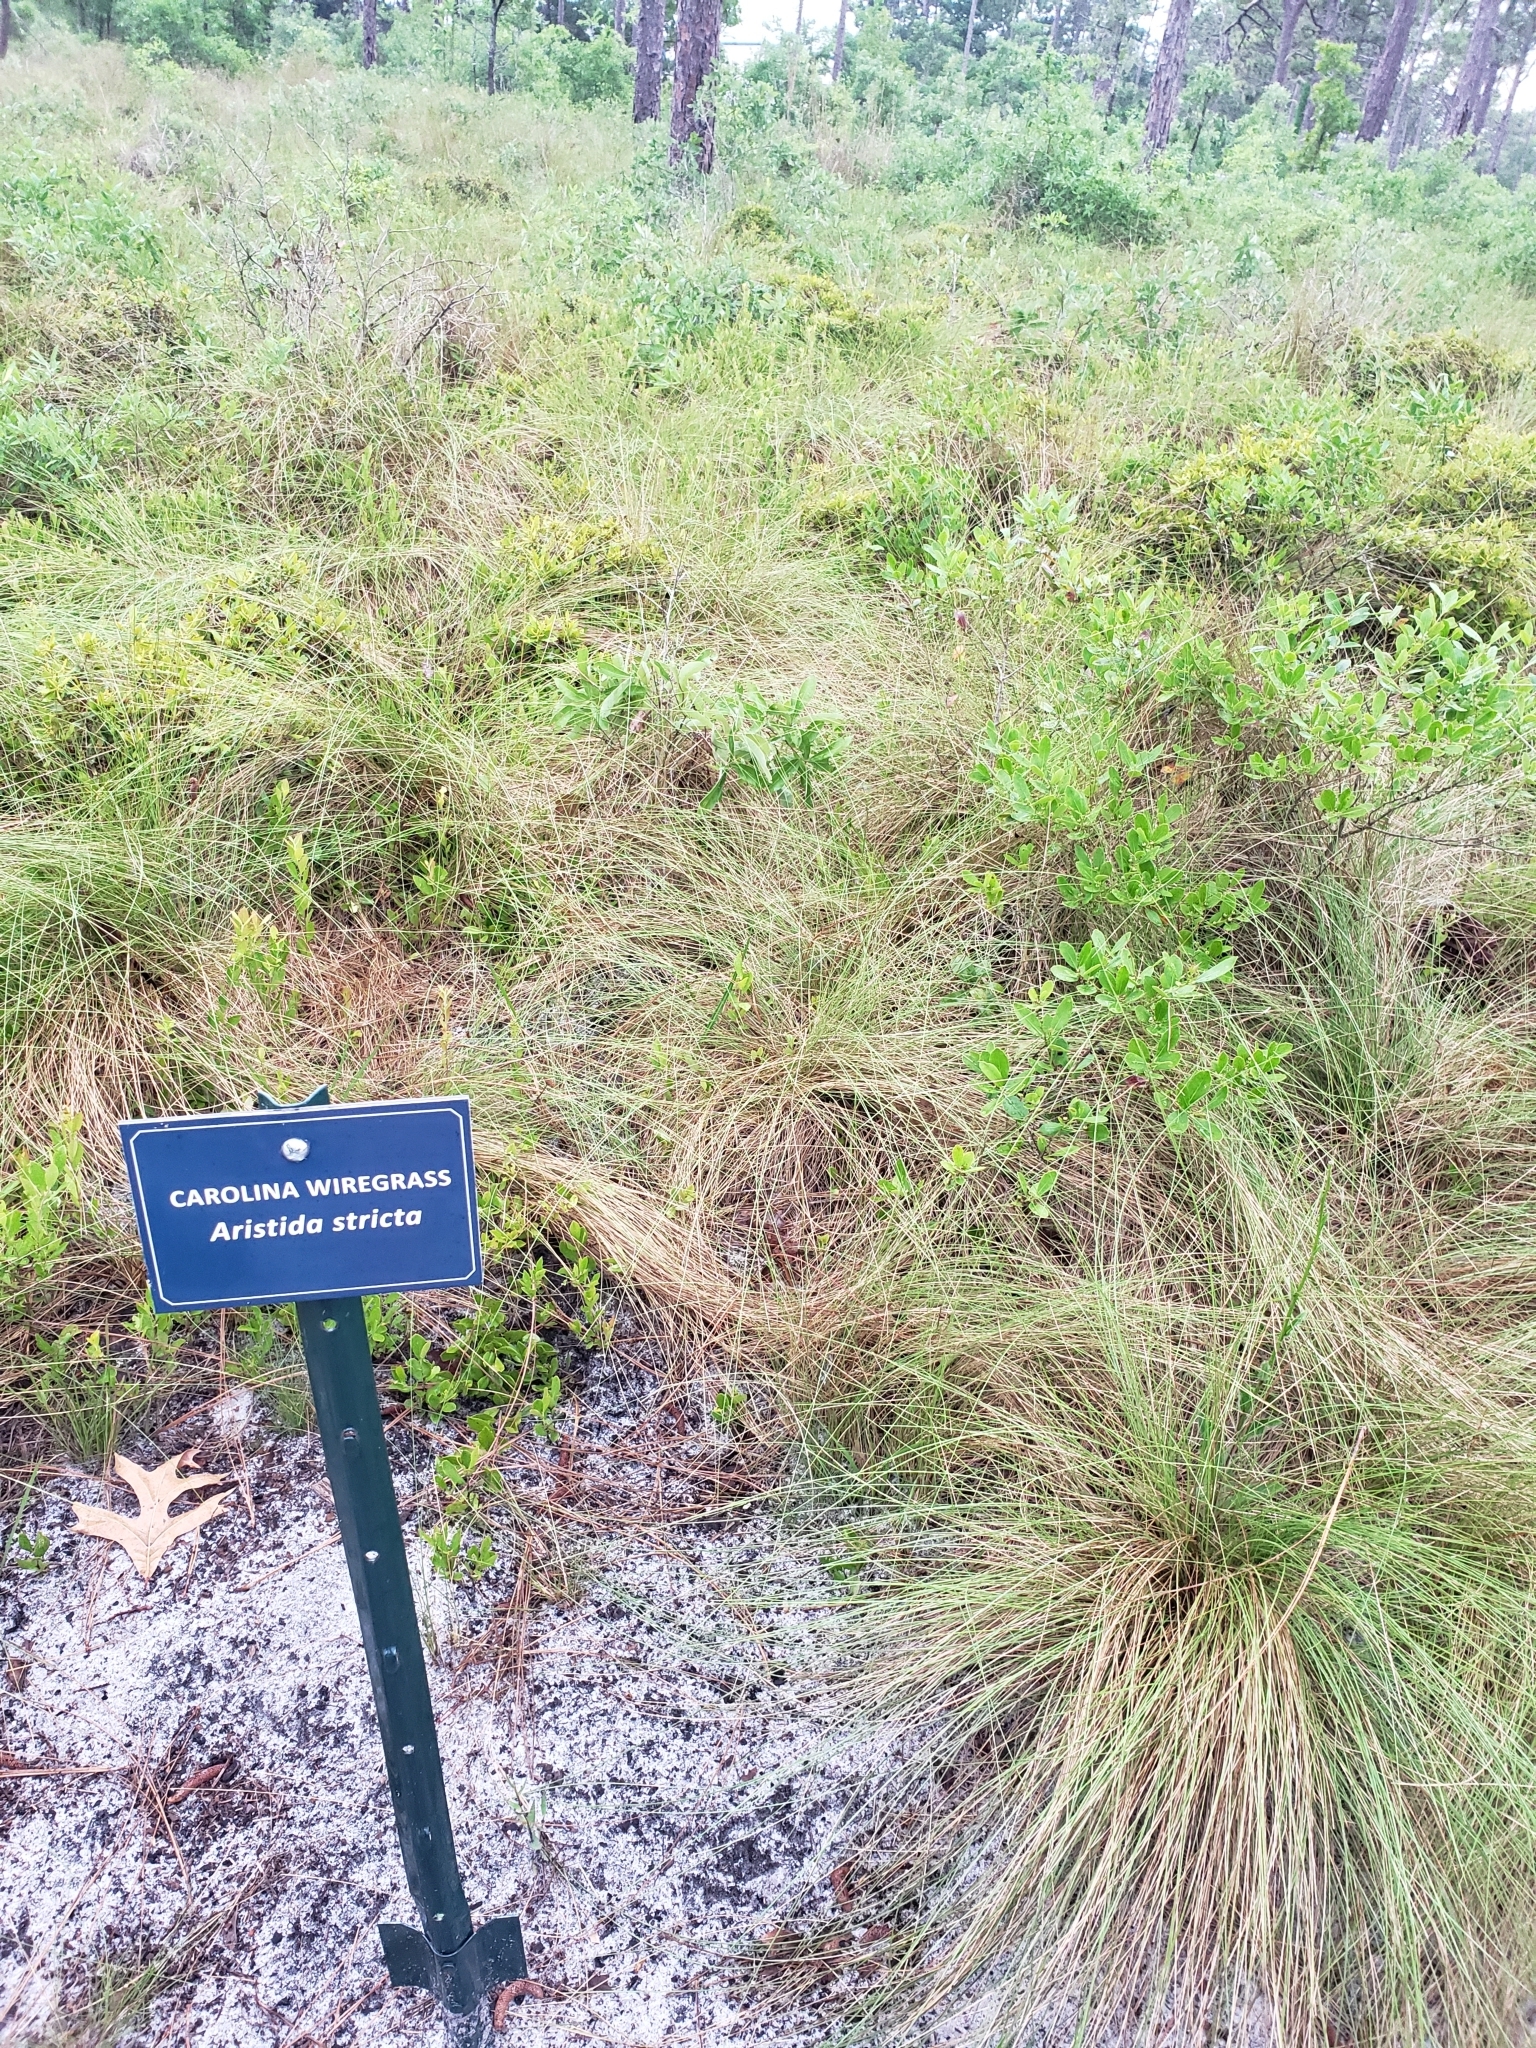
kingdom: Plantae
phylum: Tracheophyta
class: Liliopsida
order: Poales
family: Poaceae
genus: Aristida
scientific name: Aristida stricta
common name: Pineland three-awn
